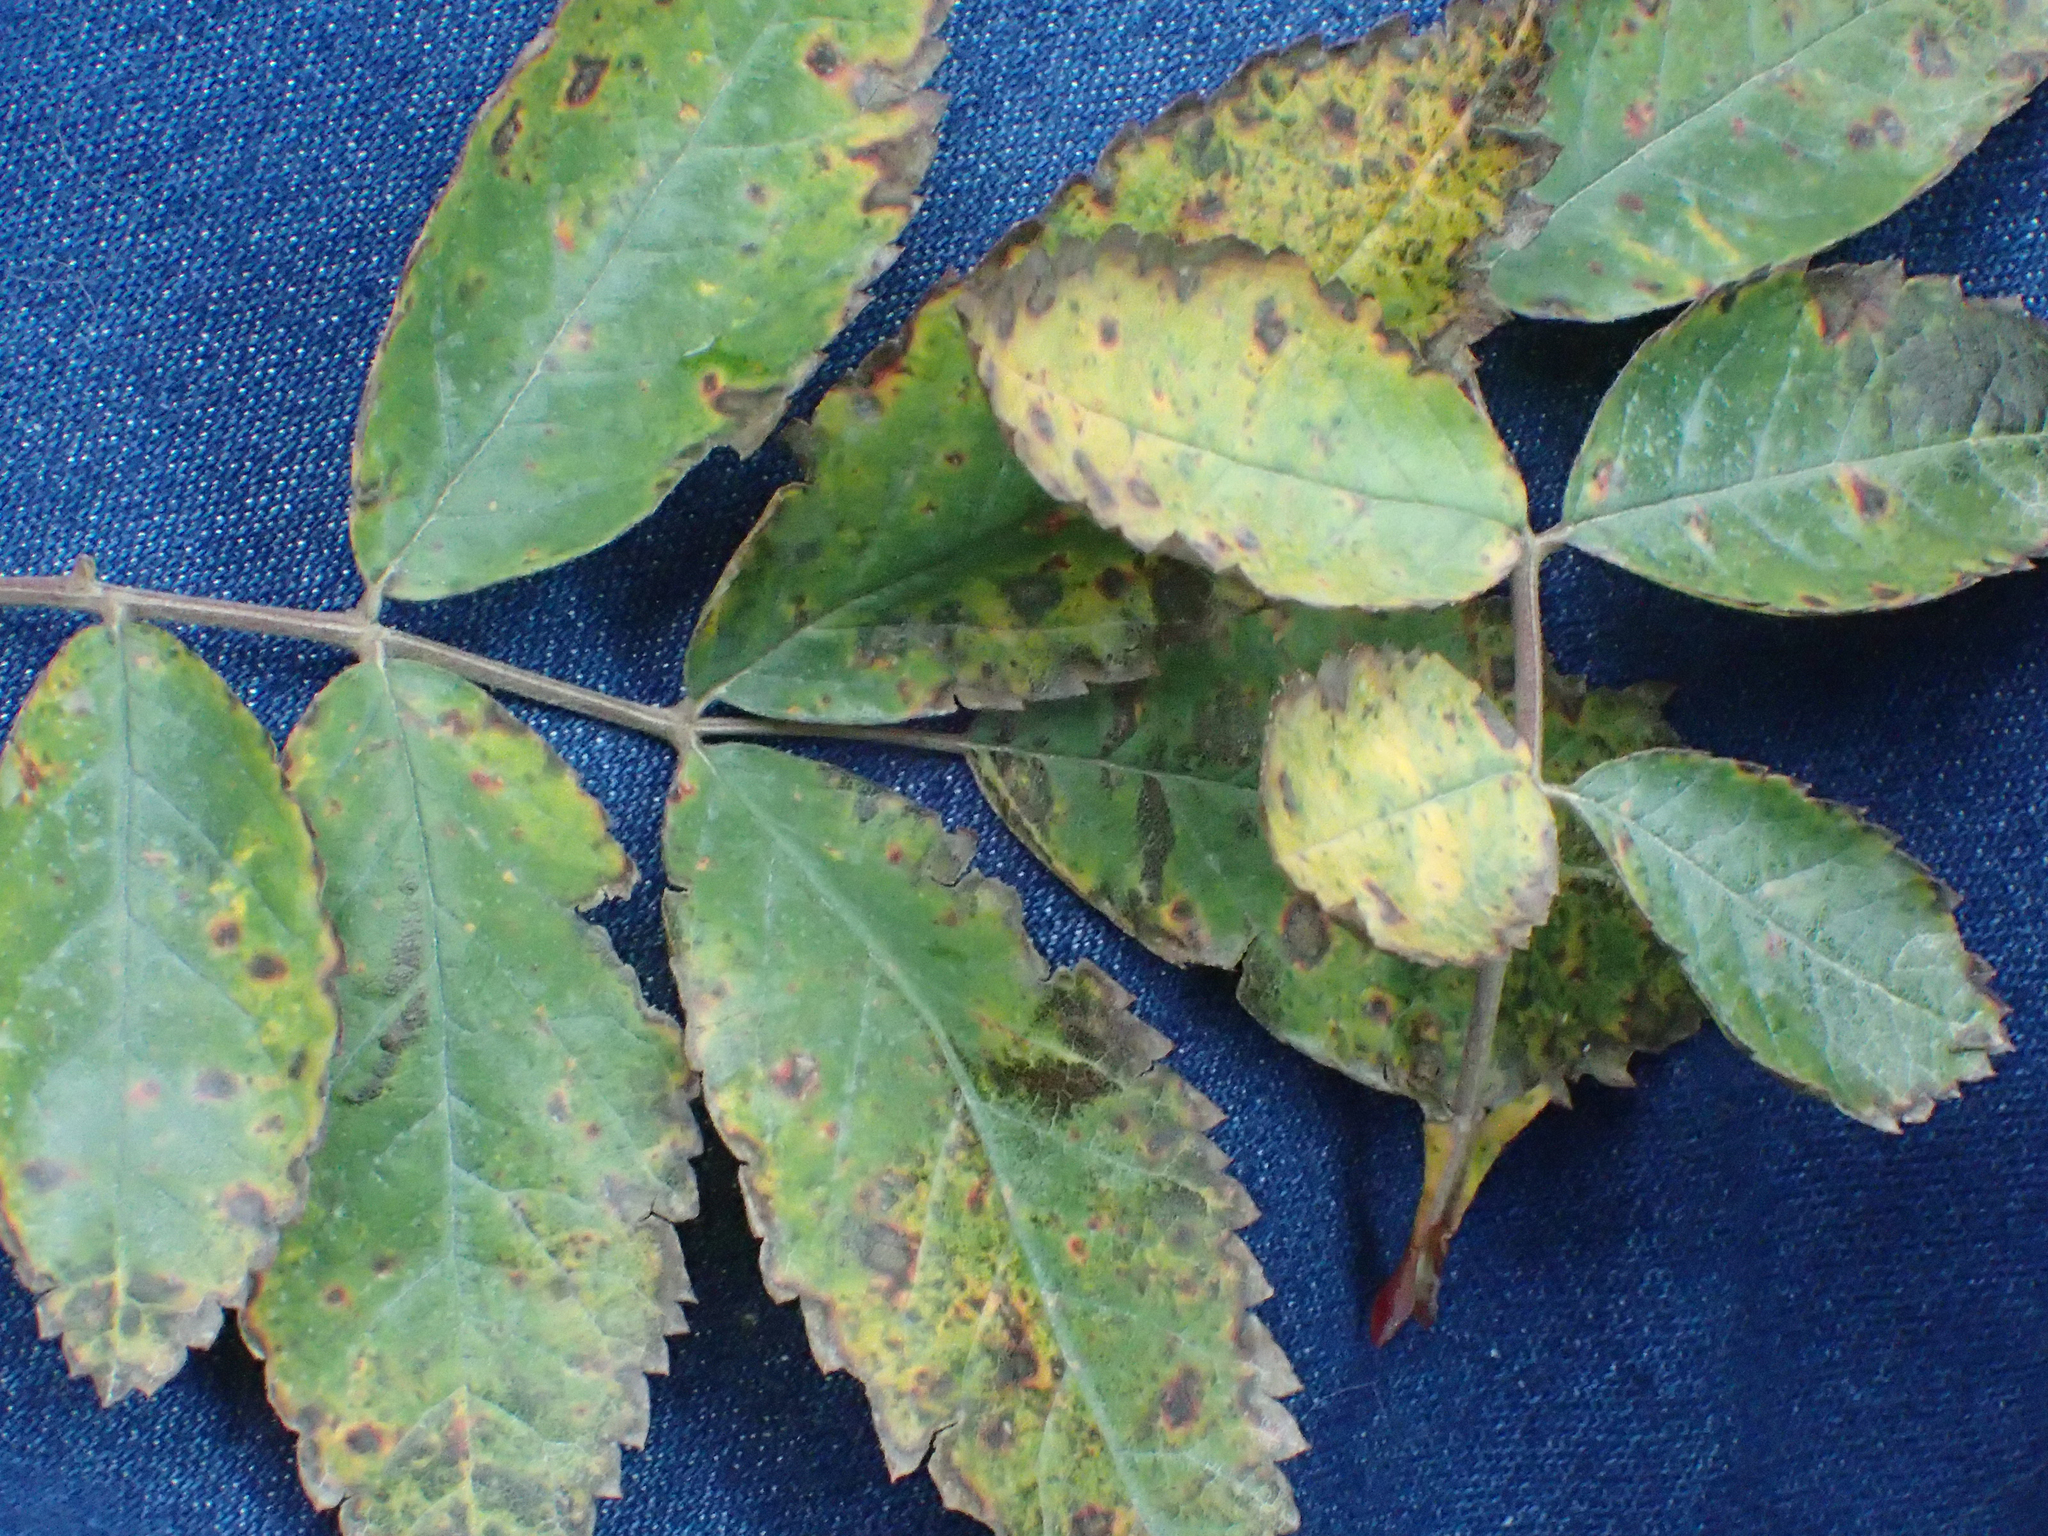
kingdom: Plantae
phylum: Tracheophyta
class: Magnoliopsida
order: Rosales
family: Rosaceae
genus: Rosa
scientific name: Rosa acicularis
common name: Prickly rose
